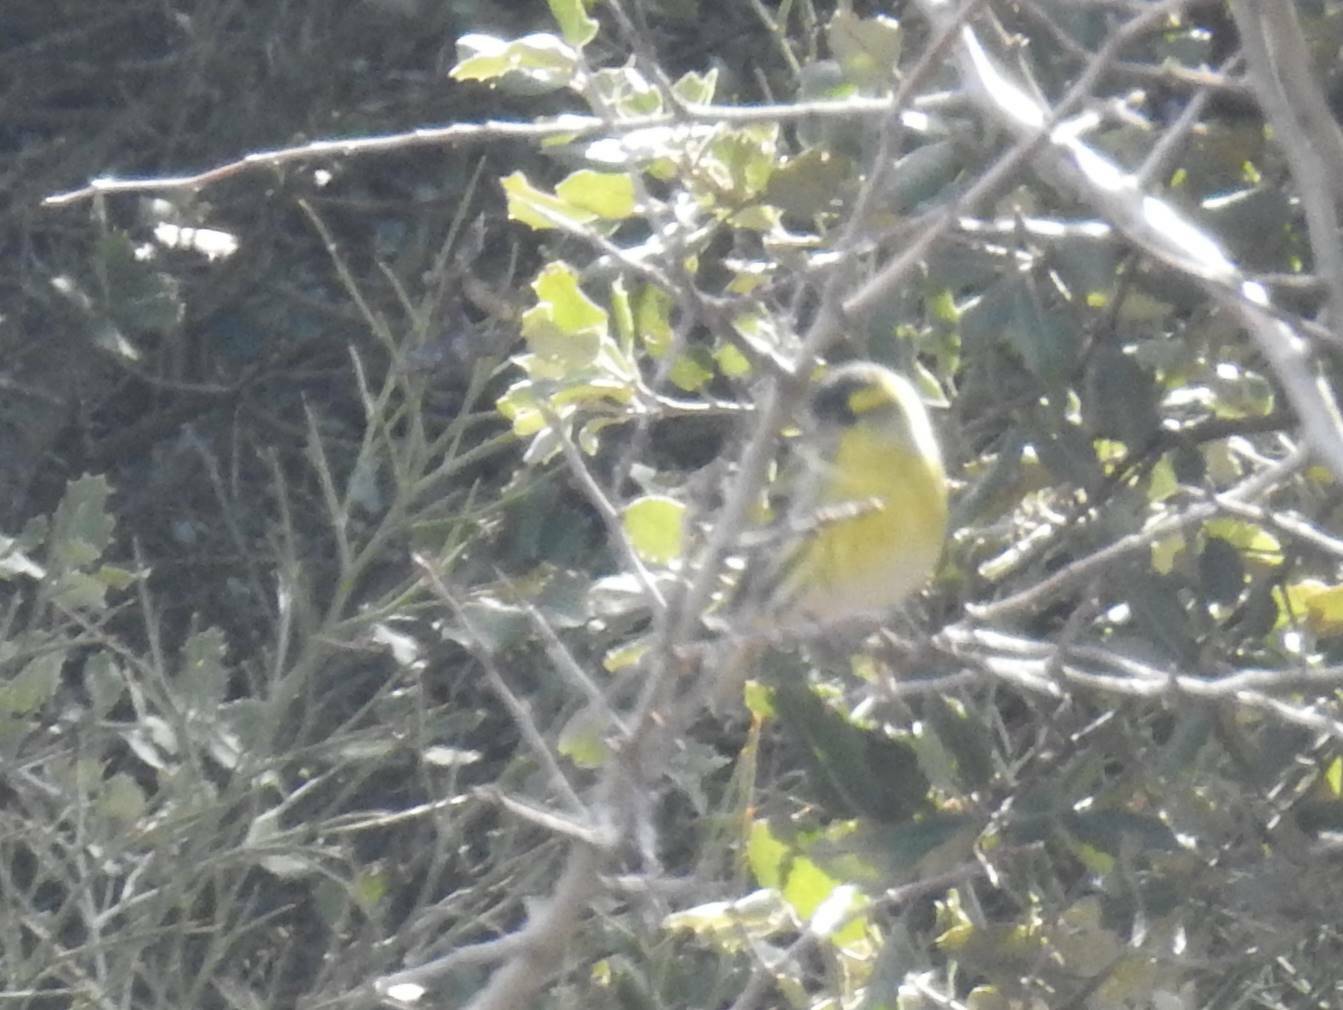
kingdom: Animalia
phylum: Chordata
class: Aves
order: Passeriformes
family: Fringillidae
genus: Spinus
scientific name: Spinus spinus
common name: Eurasian siskin
